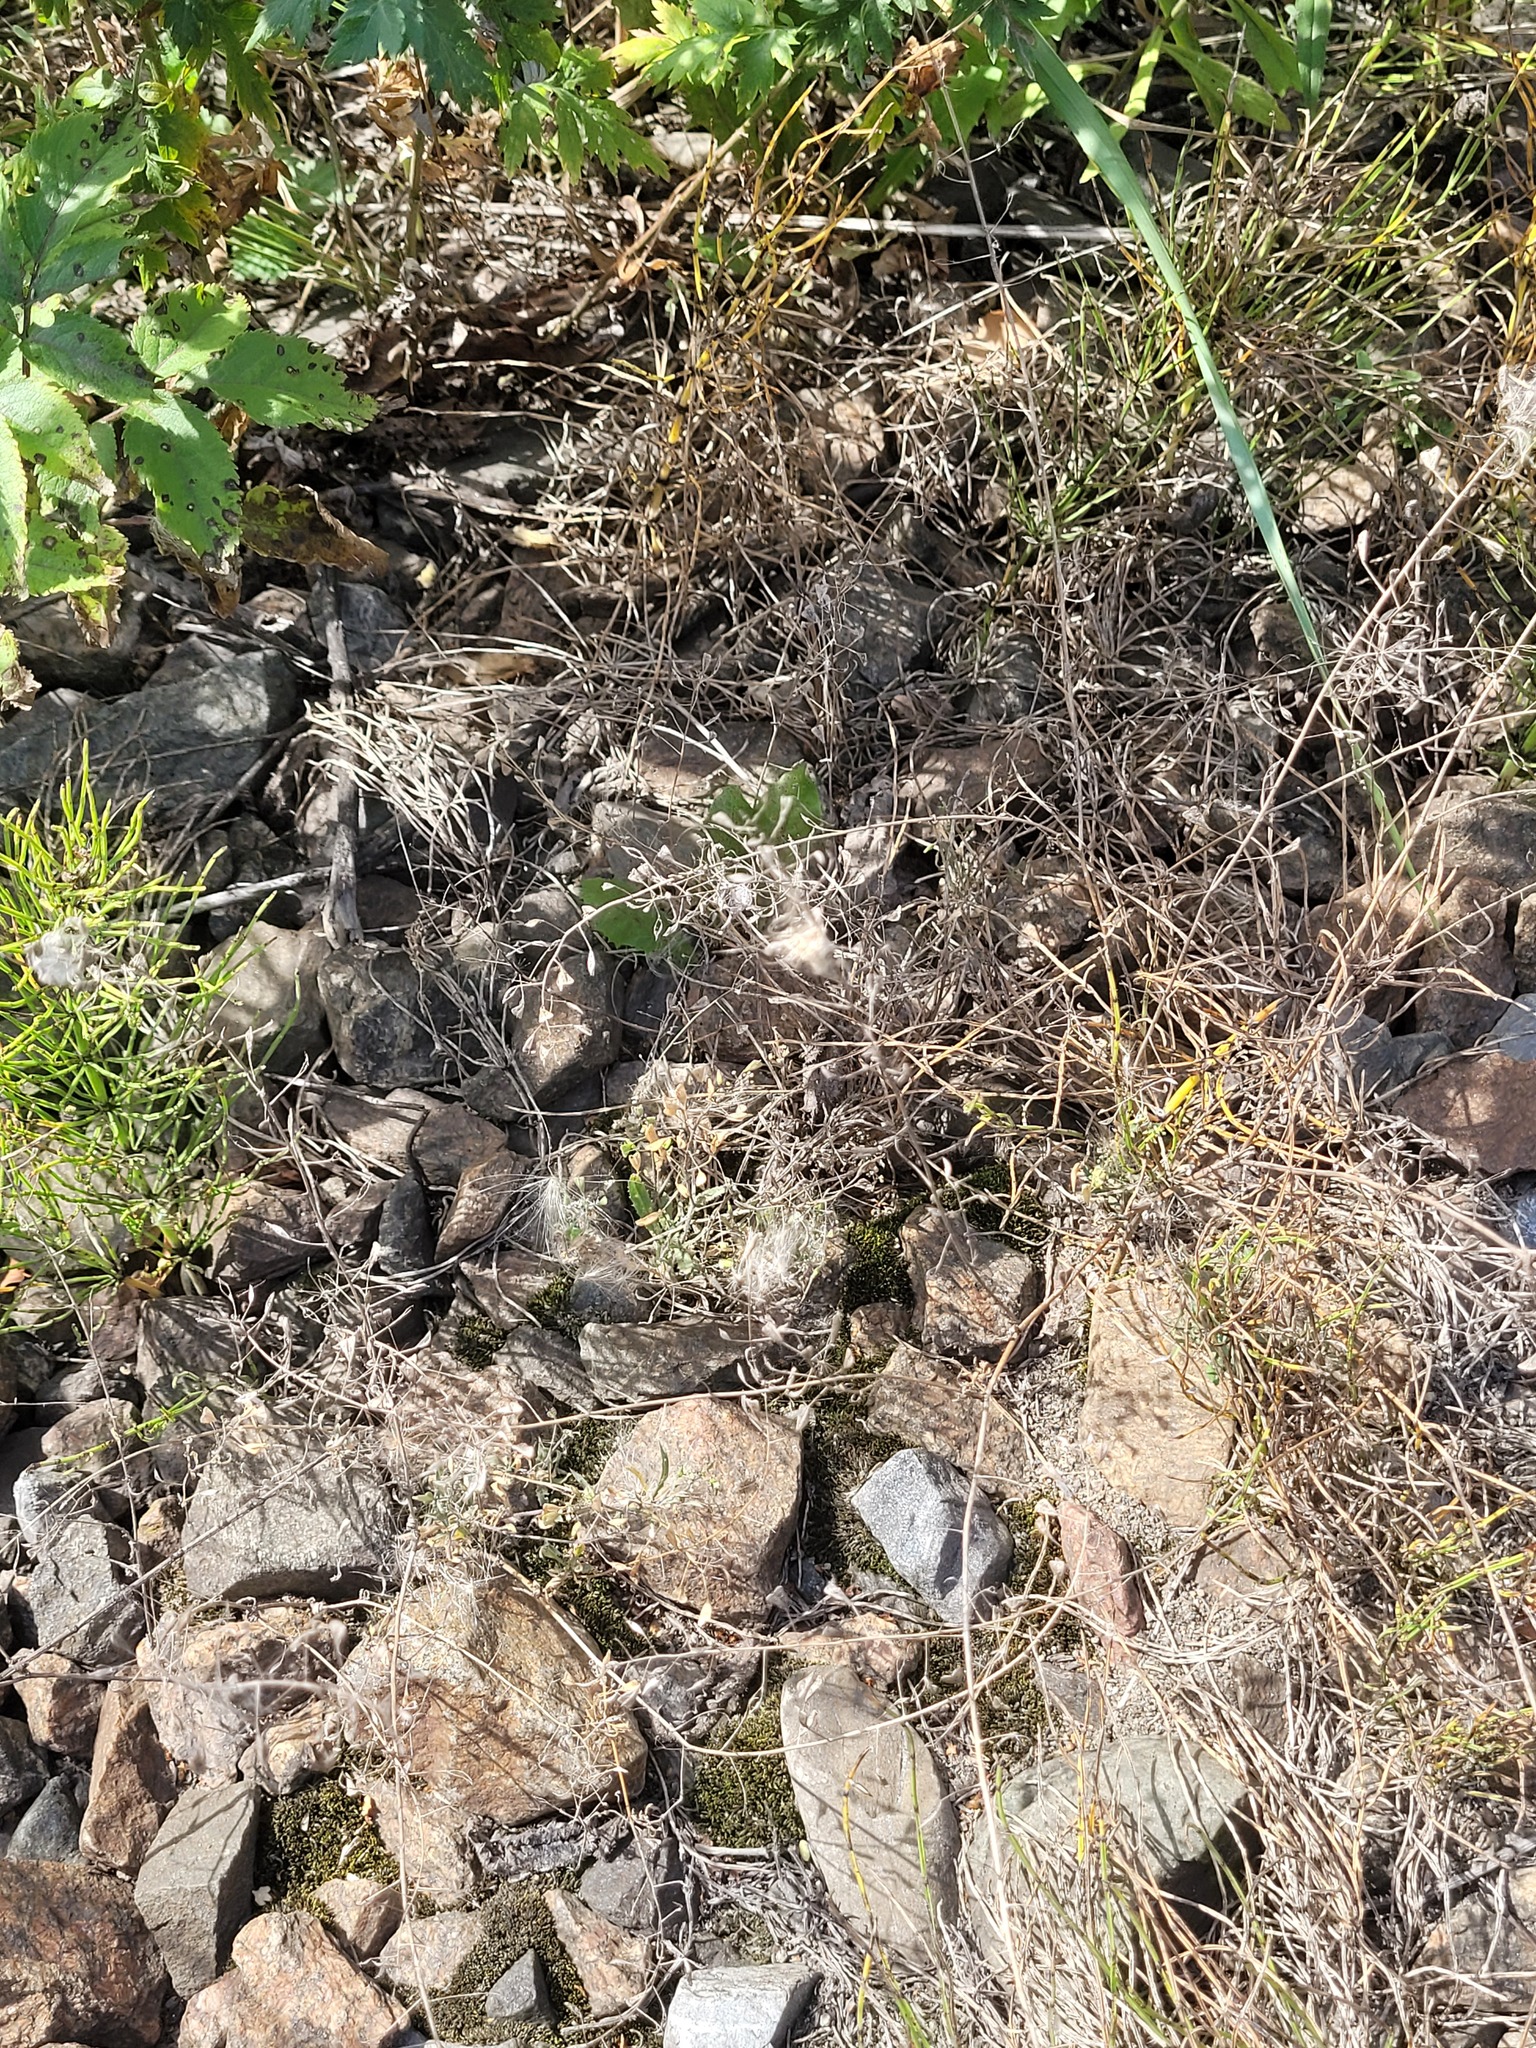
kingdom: Plantae
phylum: Tracheophyta
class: Magnoliopsida
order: Brassicales
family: Brassicaceae
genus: Capsella
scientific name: Capsella bursa-pastoris
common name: Shepherd's purse
